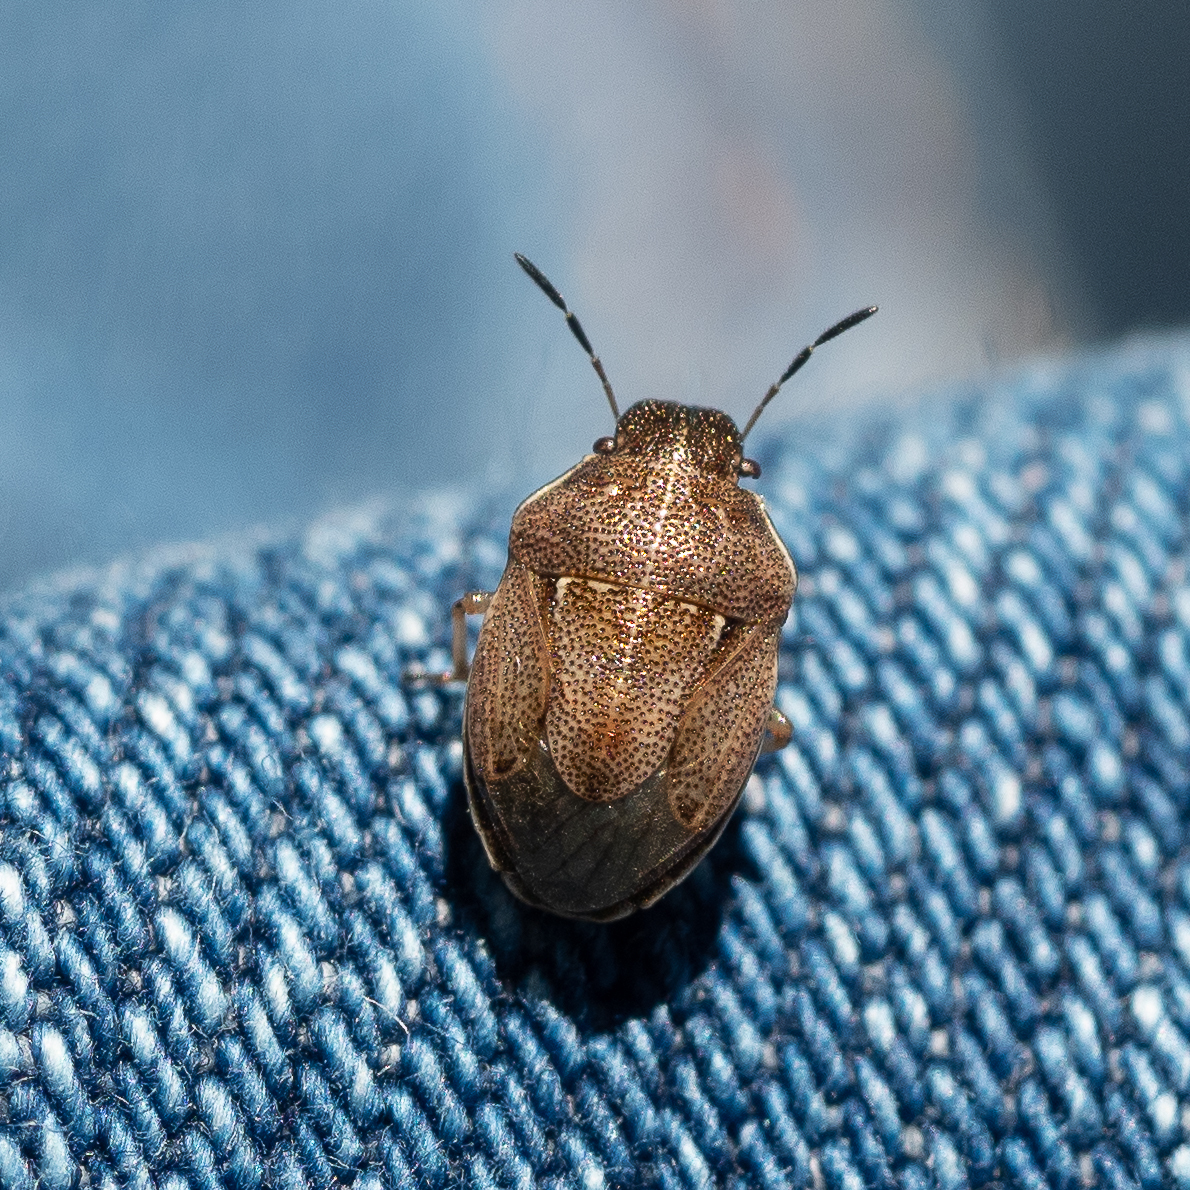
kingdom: Animalia
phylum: Arthropoda
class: Insecta
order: Hemiptera
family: Pentatomidae
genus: Neottiglossa
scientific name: Neottiglossa pusilla
